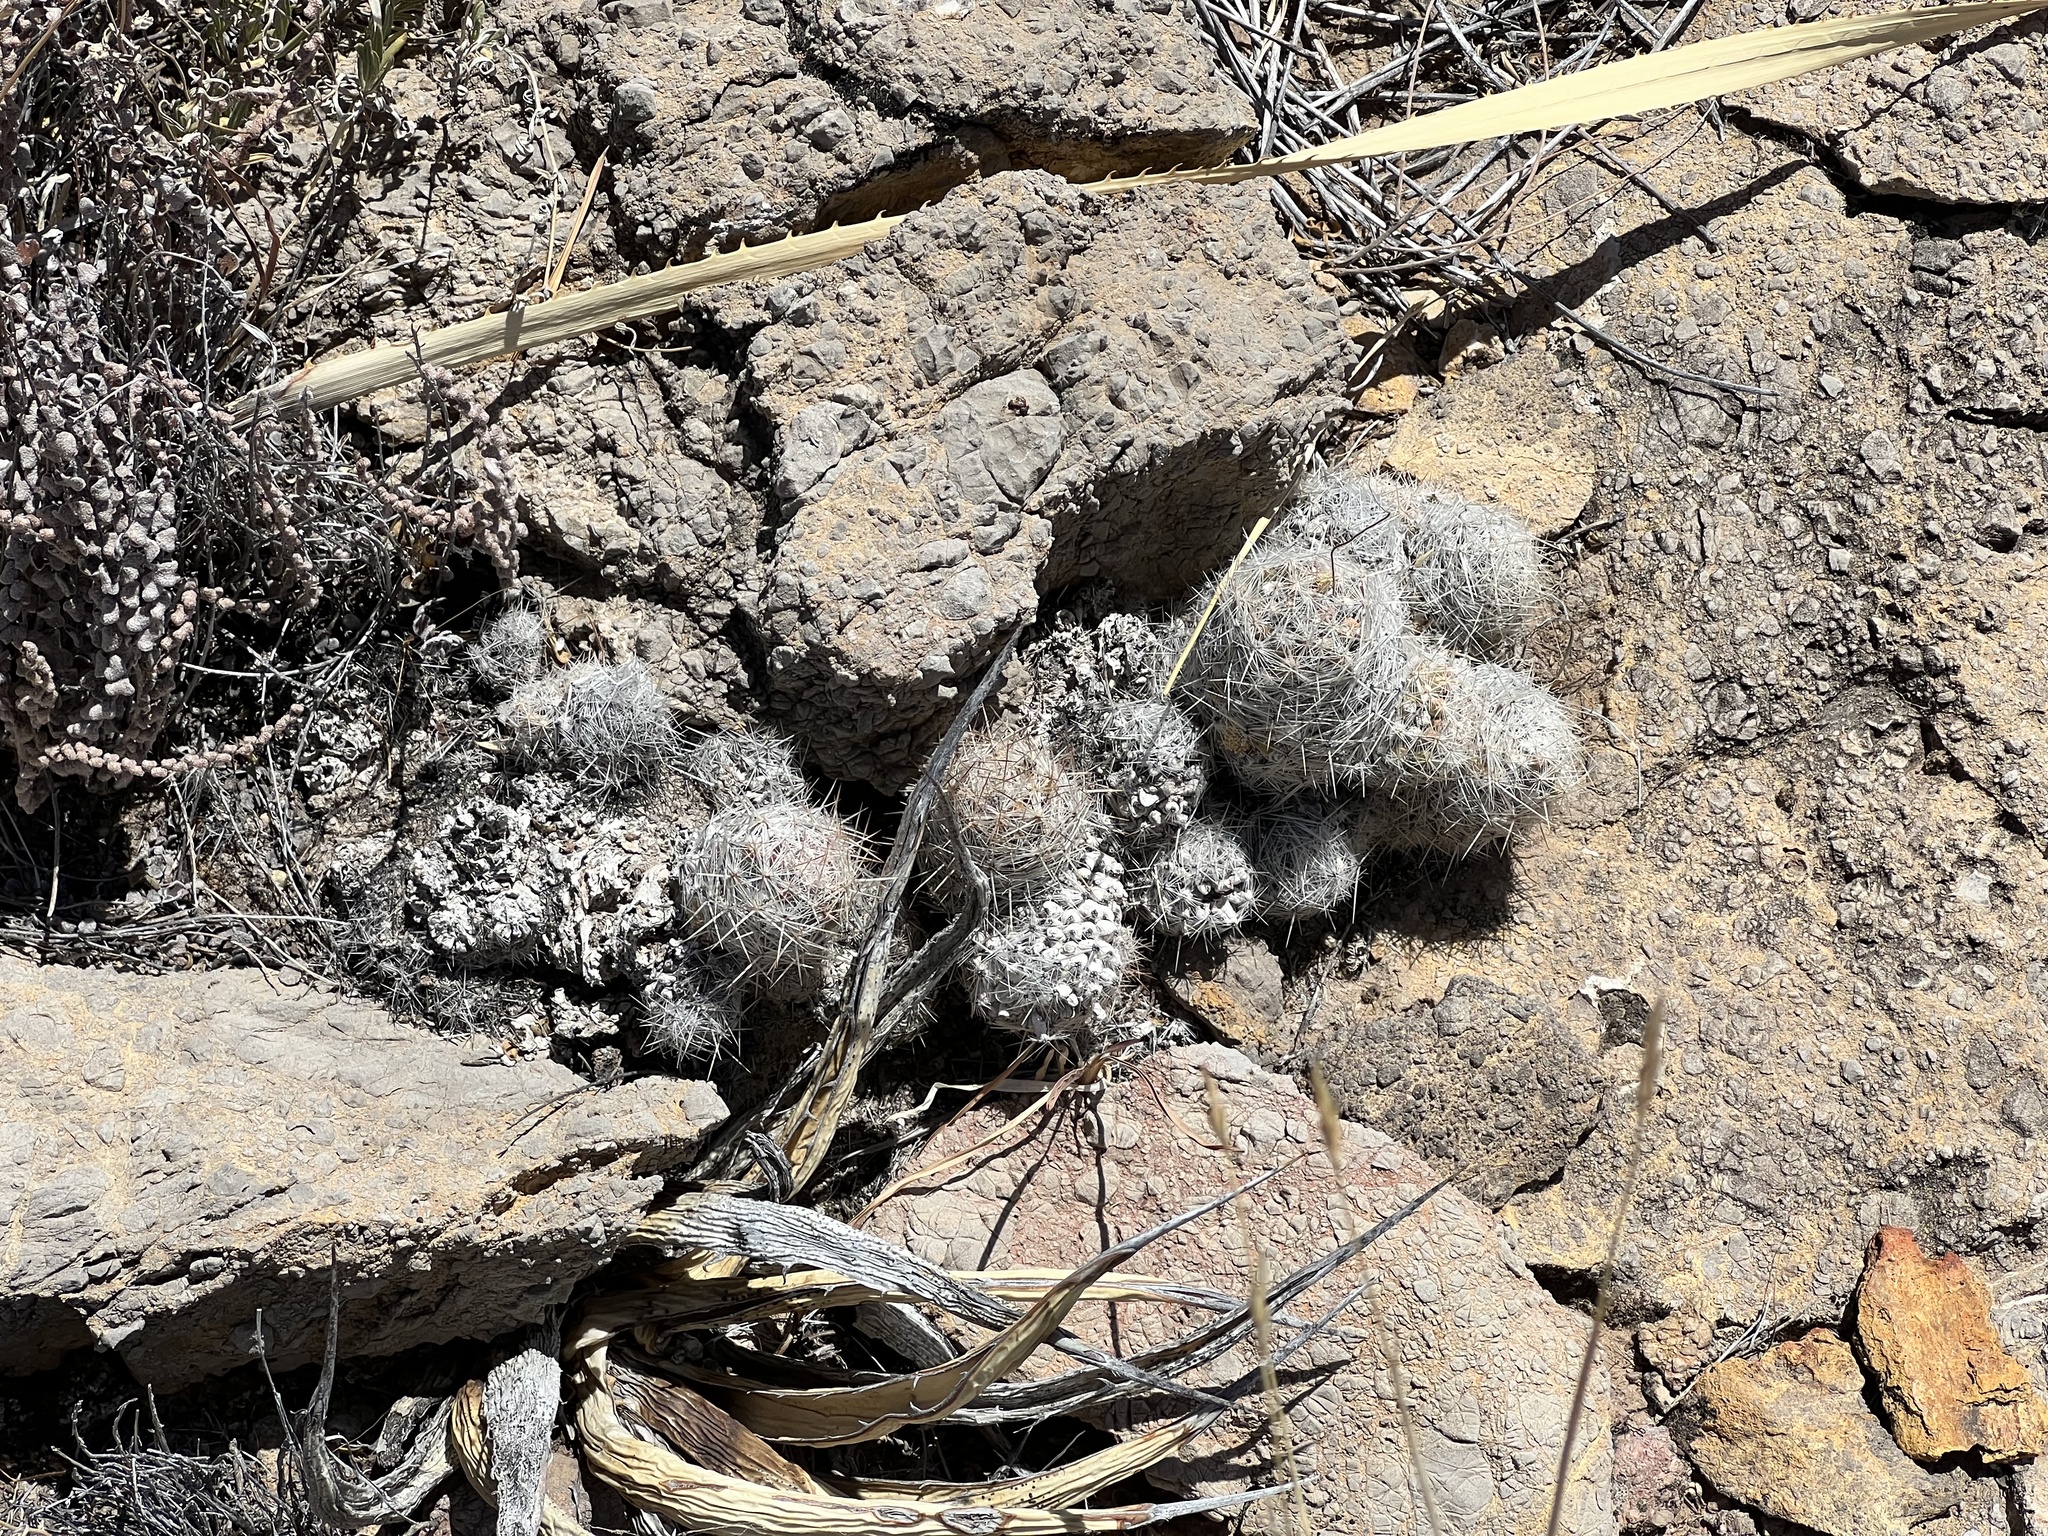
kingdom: Plantae
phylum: Tracheophyta
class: Magnoliopsida
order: Caryophyllales
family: Cactaceae
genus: Pelecyphora
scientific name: Pelecyphora tuberculosa
